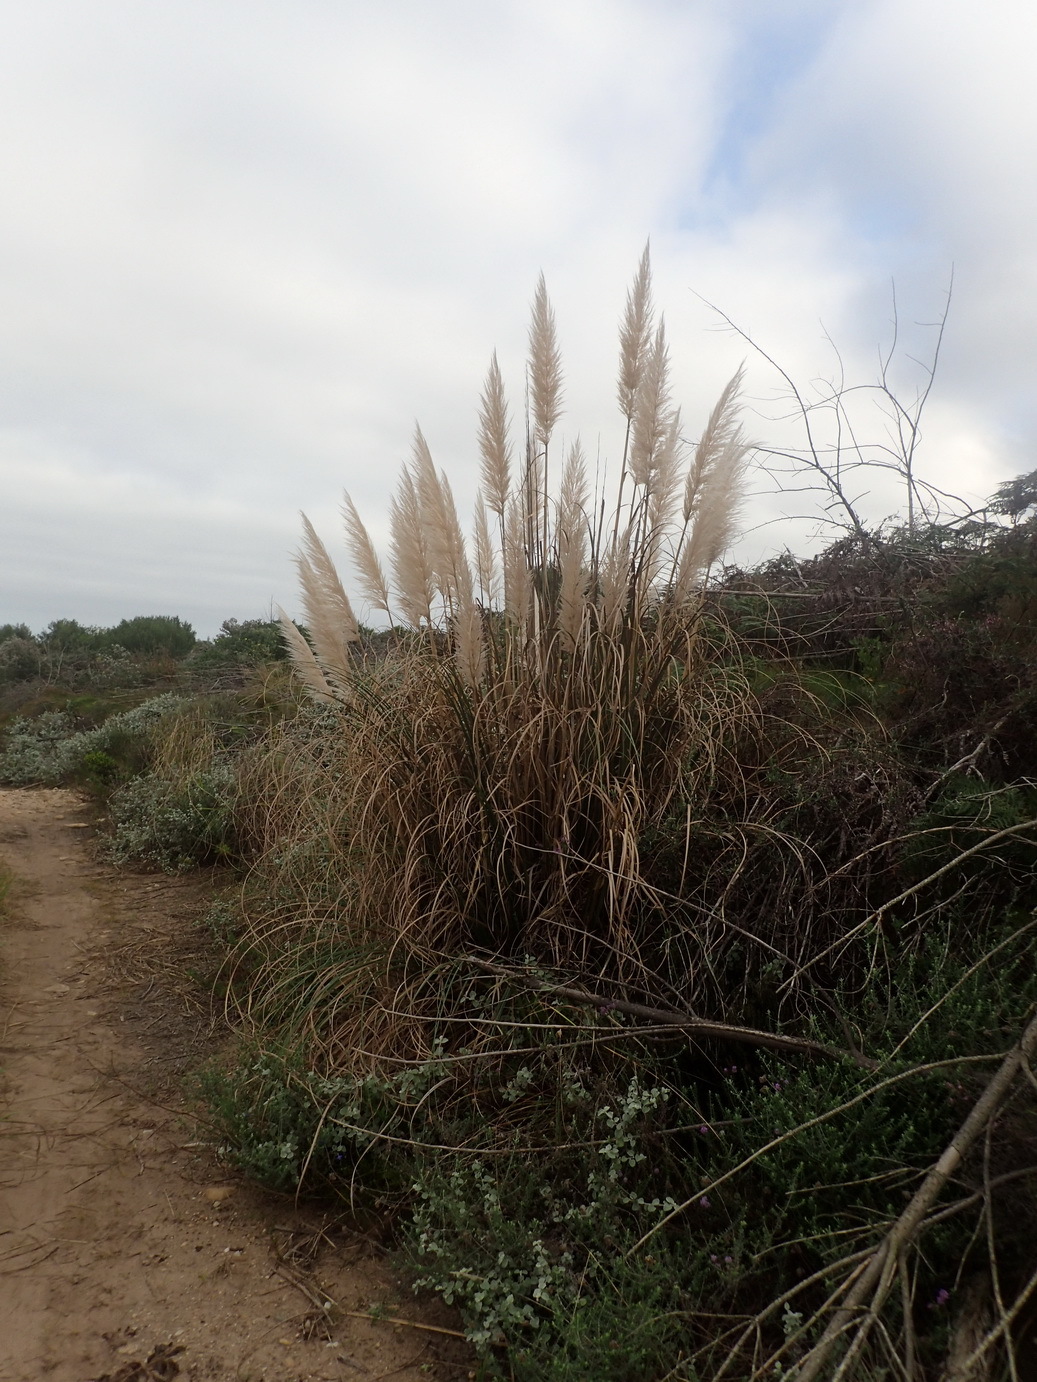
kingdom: Plantae
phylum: Tracheophyta
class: Liliopsida
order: Poales
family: Poaceae
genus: Cortaderia
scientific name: Cortaderia selloana
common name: Uruguayan pampas grass
